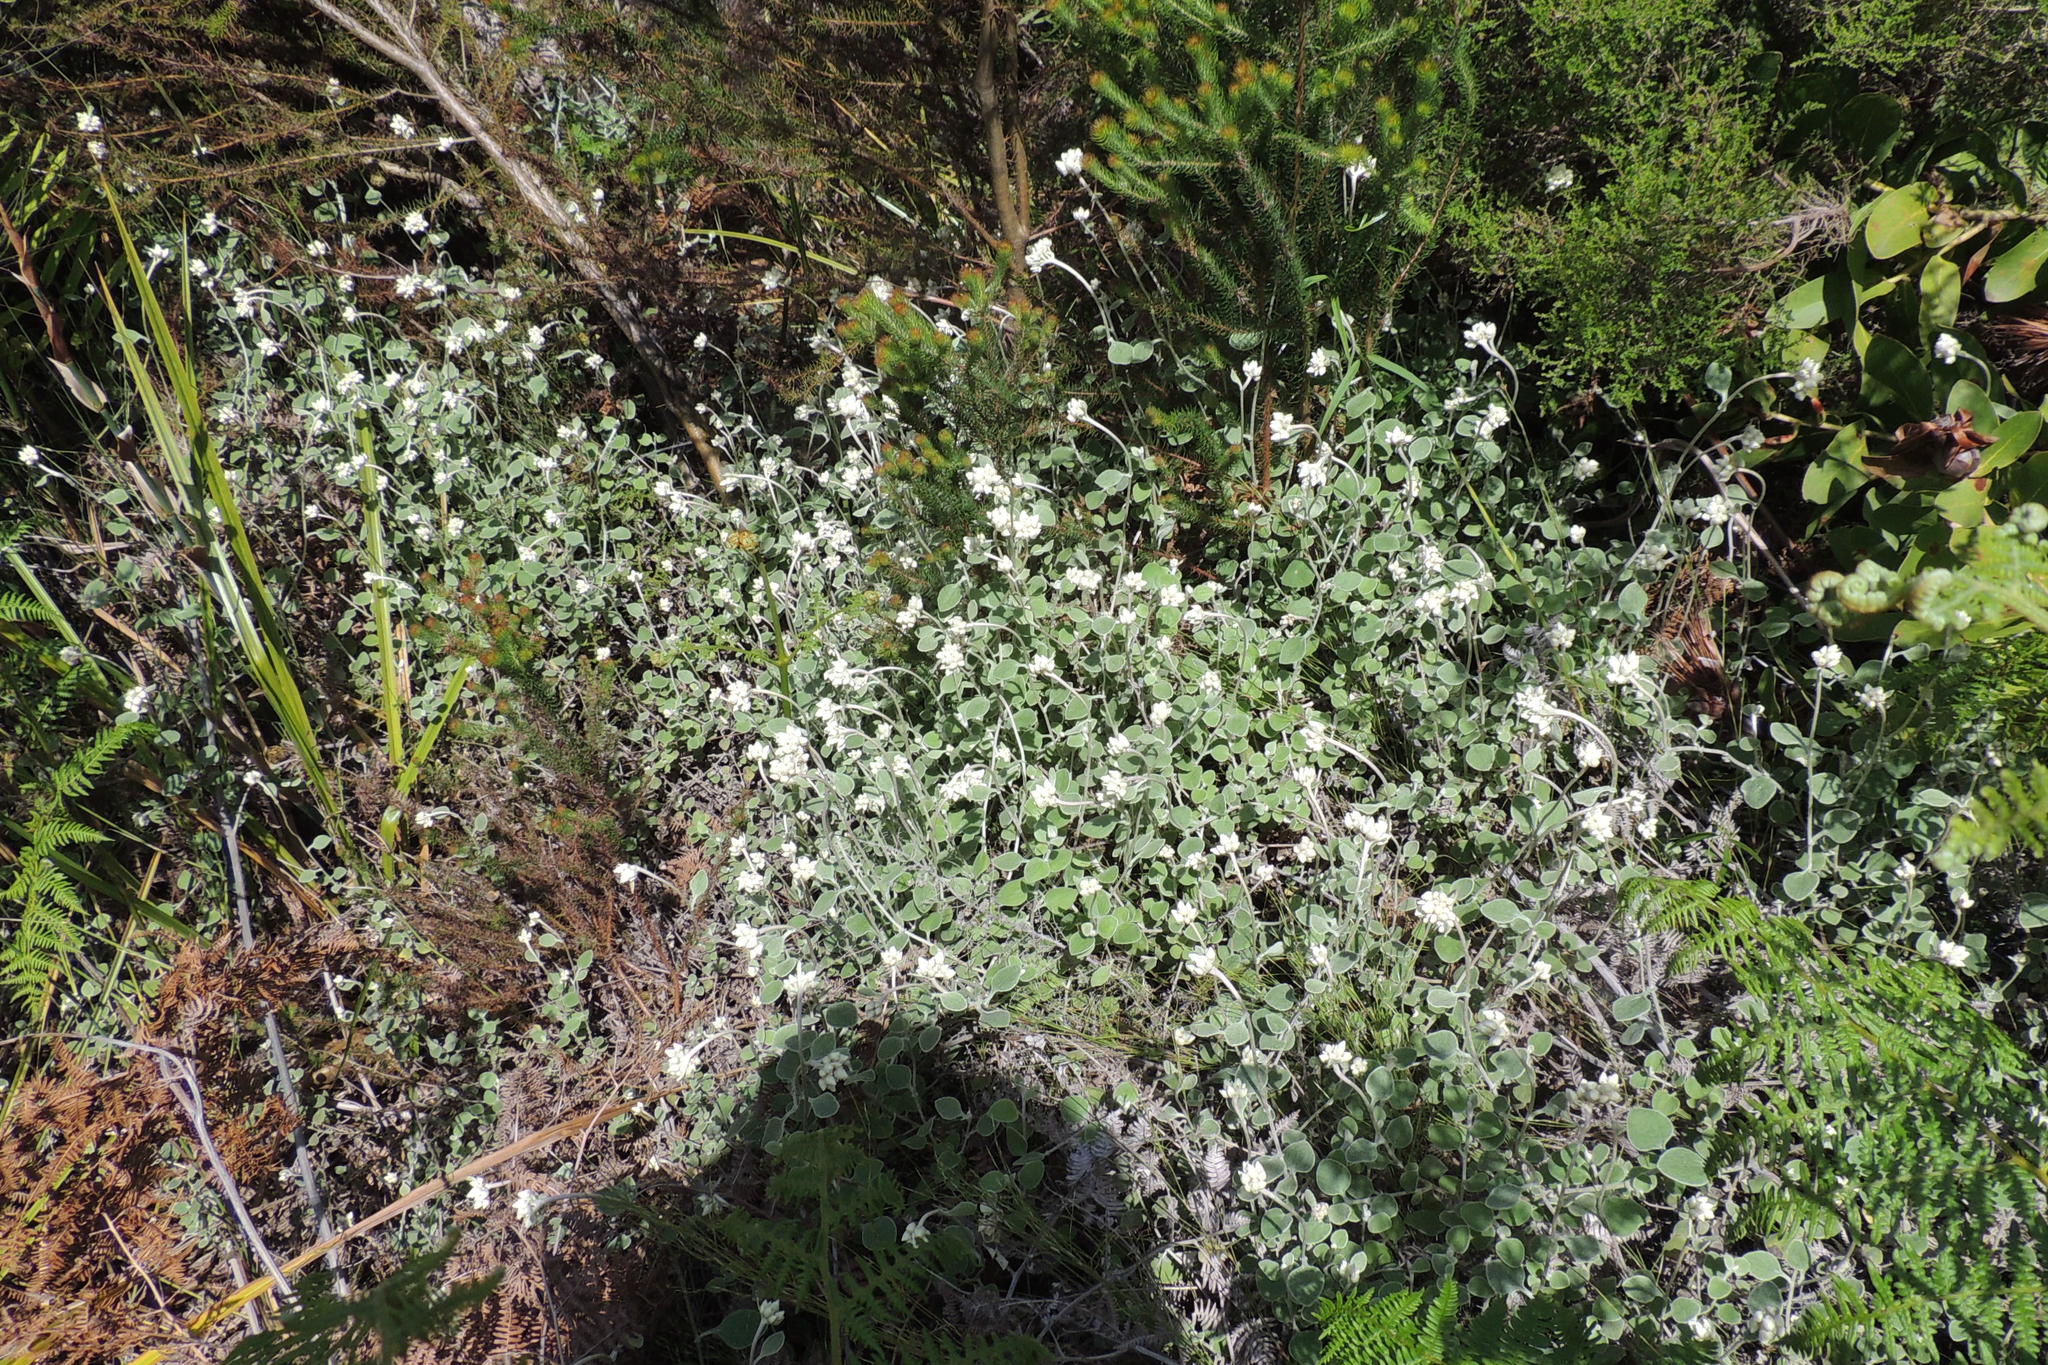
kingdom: Plantae
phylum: Tracheophyta
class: Magnoliopsida
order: Asterales
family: Asteraceae
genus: Helichrysum
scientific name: Helichrysum petiolare
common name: Licorice-plant
